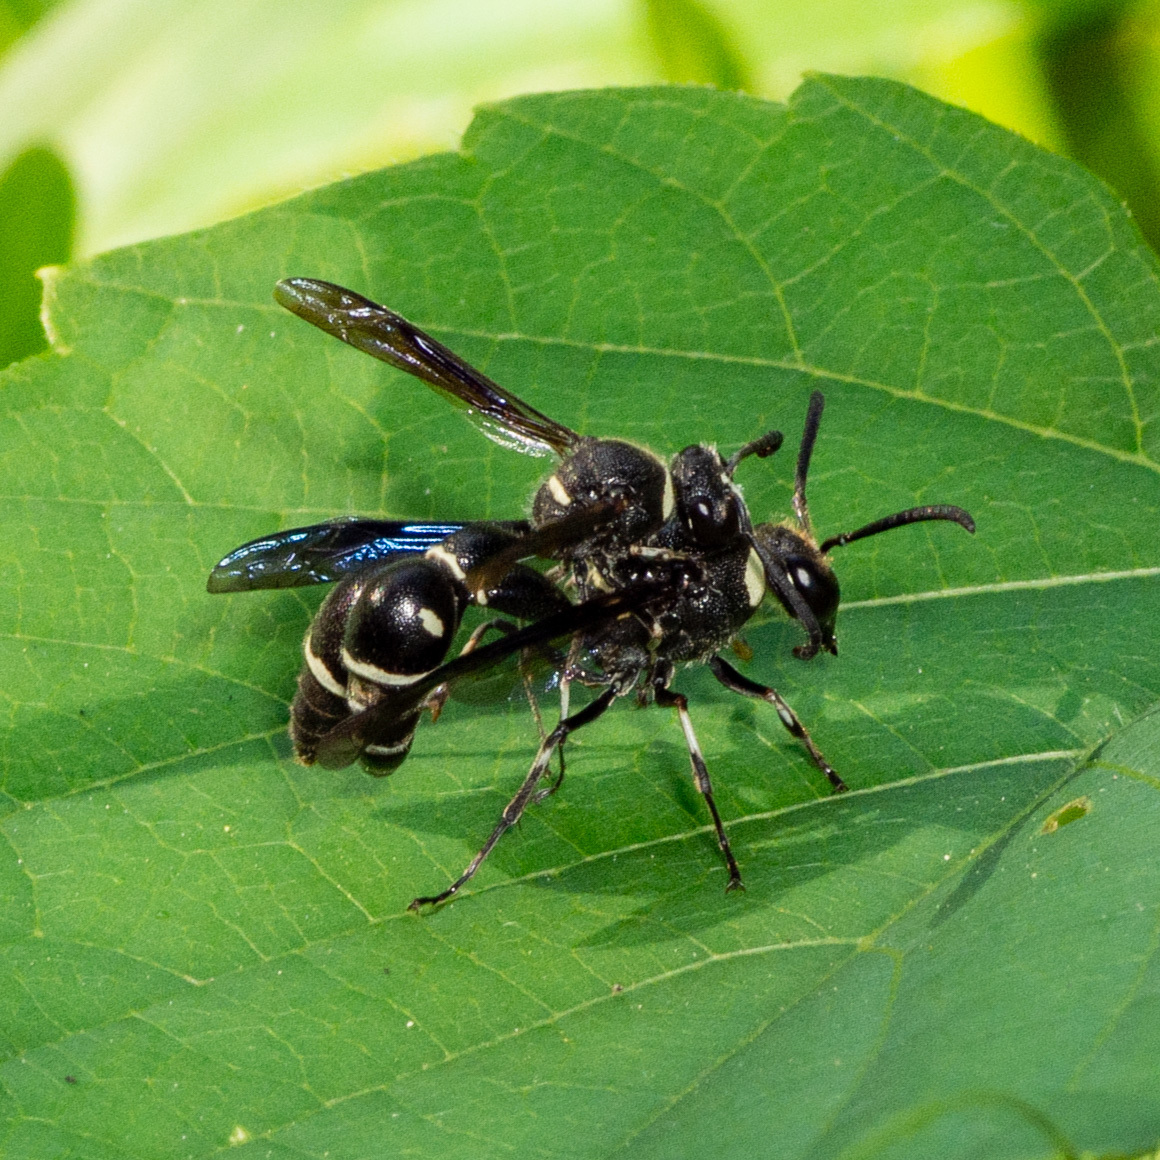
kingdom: Animalia
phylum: Arthropoda
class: Insecta
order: Hymenoptera
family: Vespidae
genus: Eumenes
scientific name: Eumenes fraternus
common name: Fraternal potter wasp
